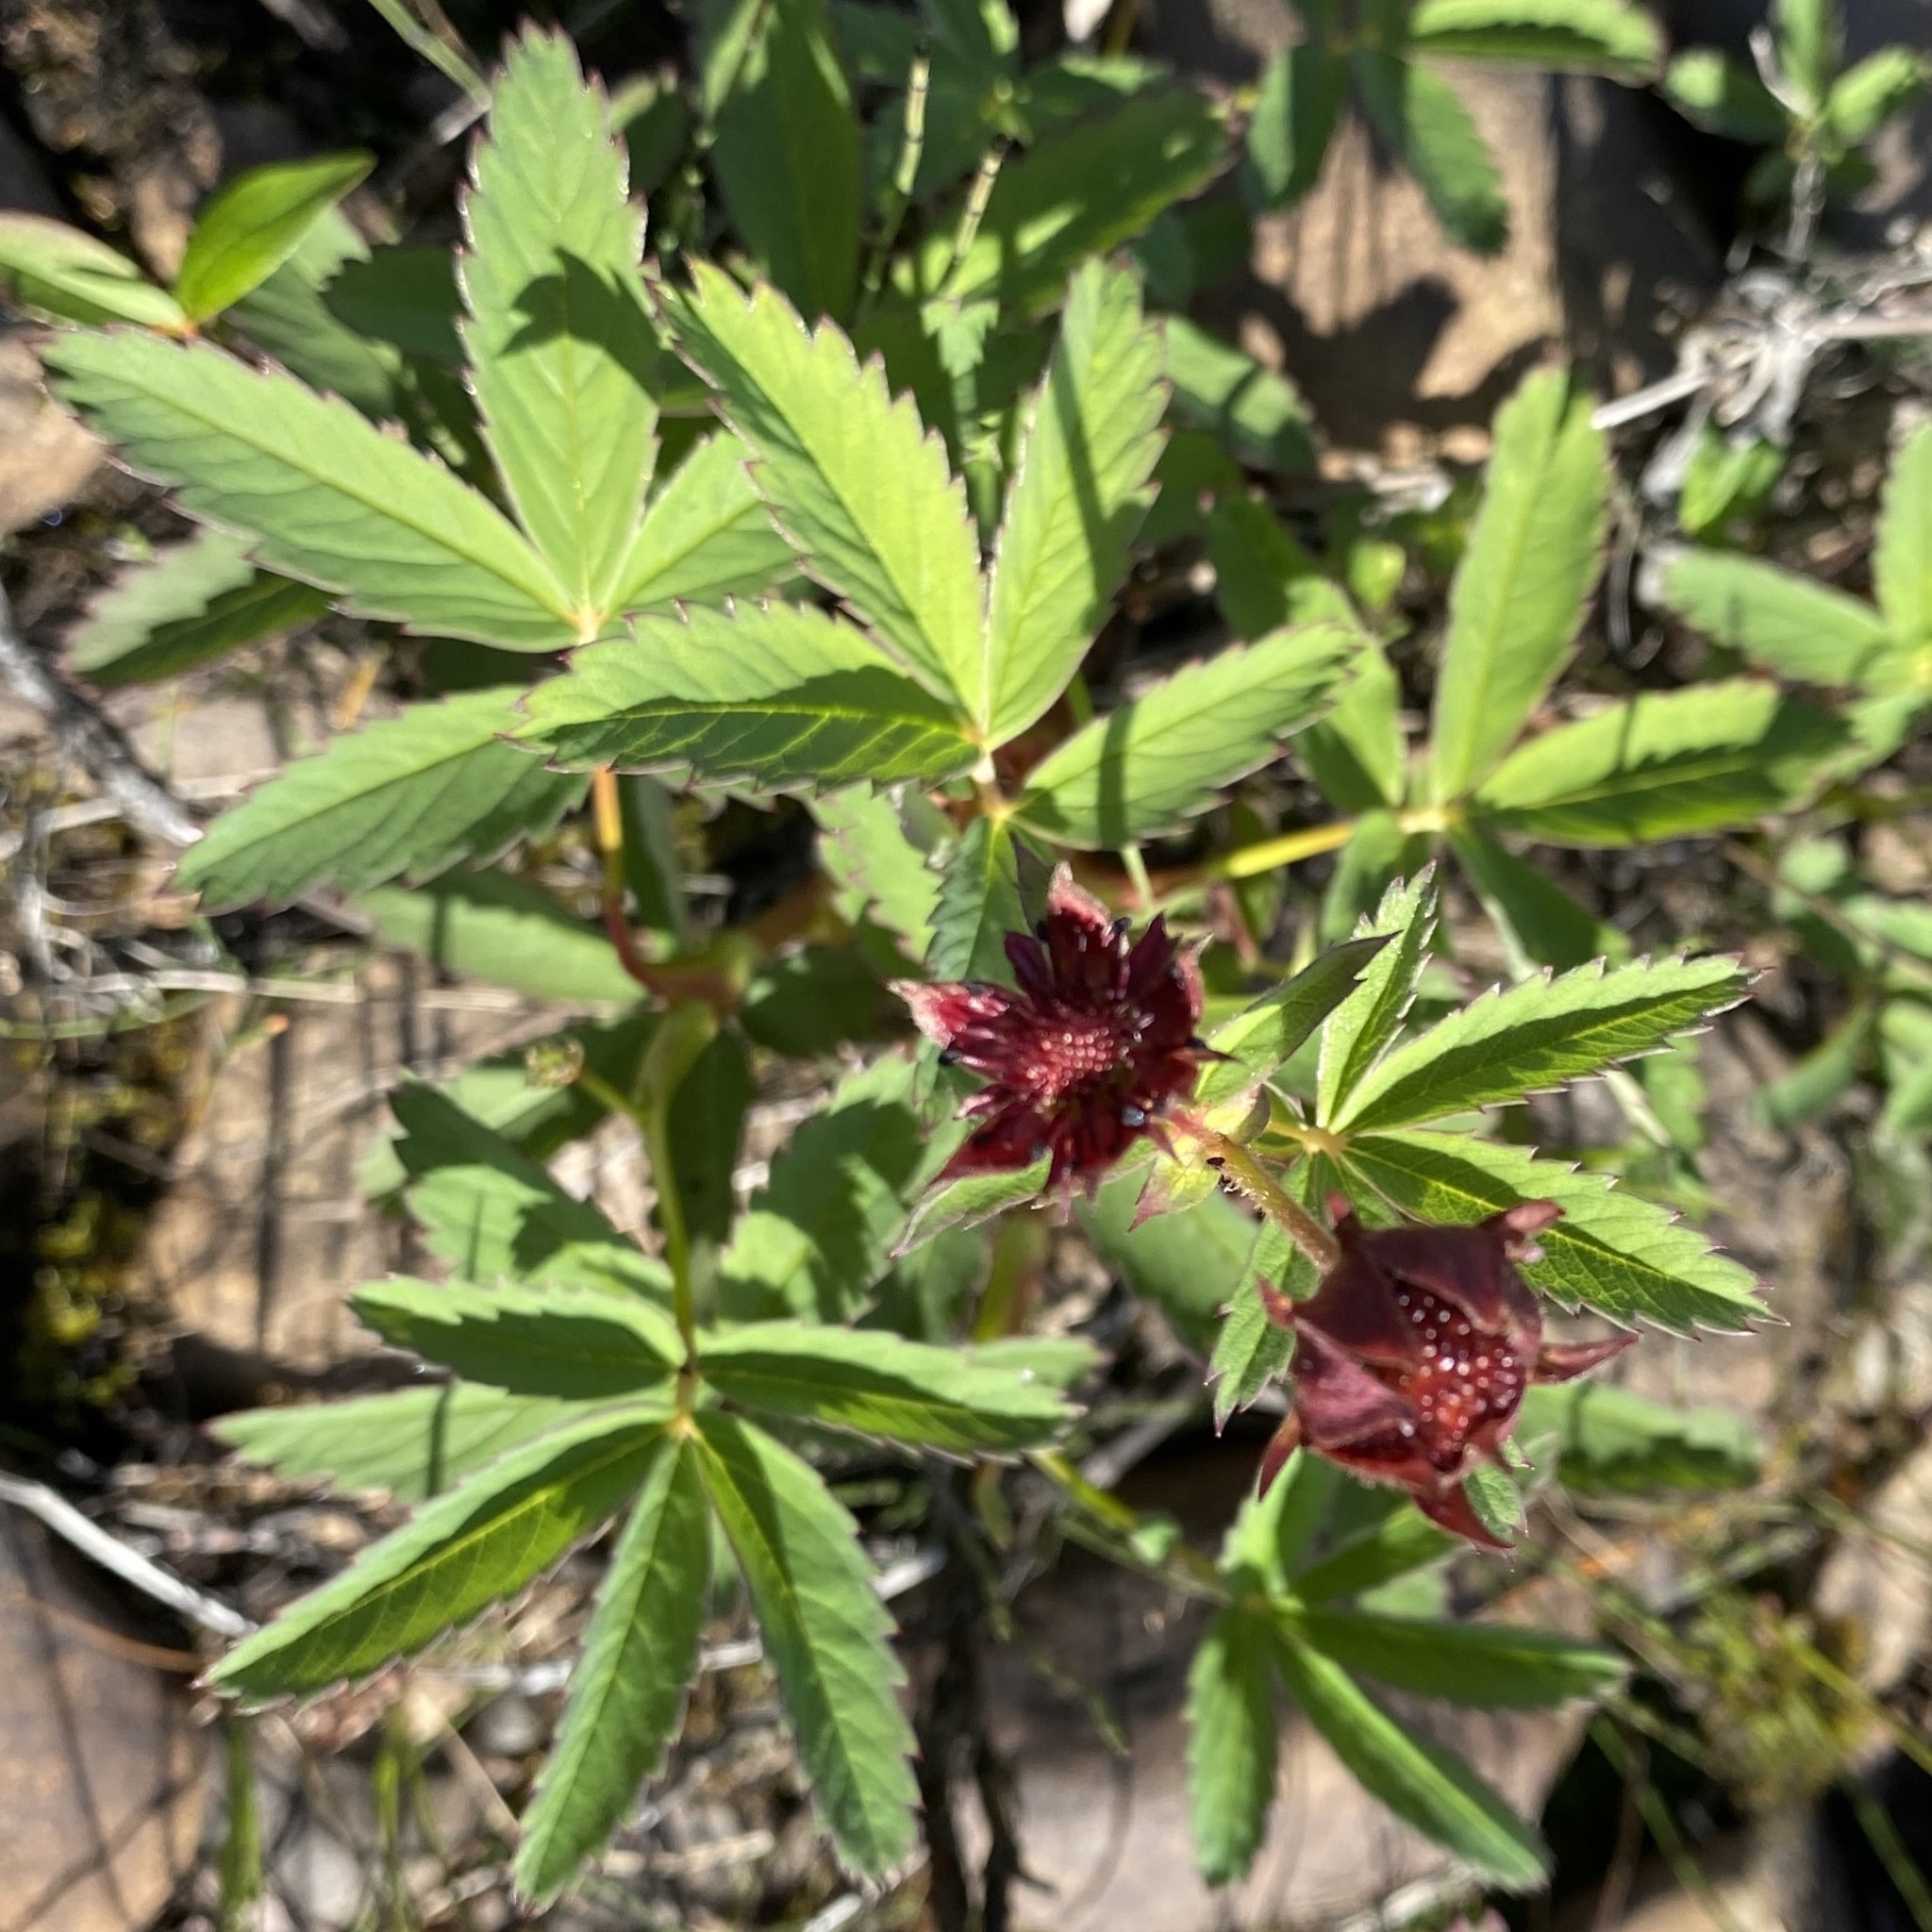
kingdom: Plantae
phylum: Tracheophyta
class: Magnoliopsida
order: Rosales
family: Rosaceae
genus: Comarum
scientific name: Comarum palustre
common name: Marsh cinquefoil
